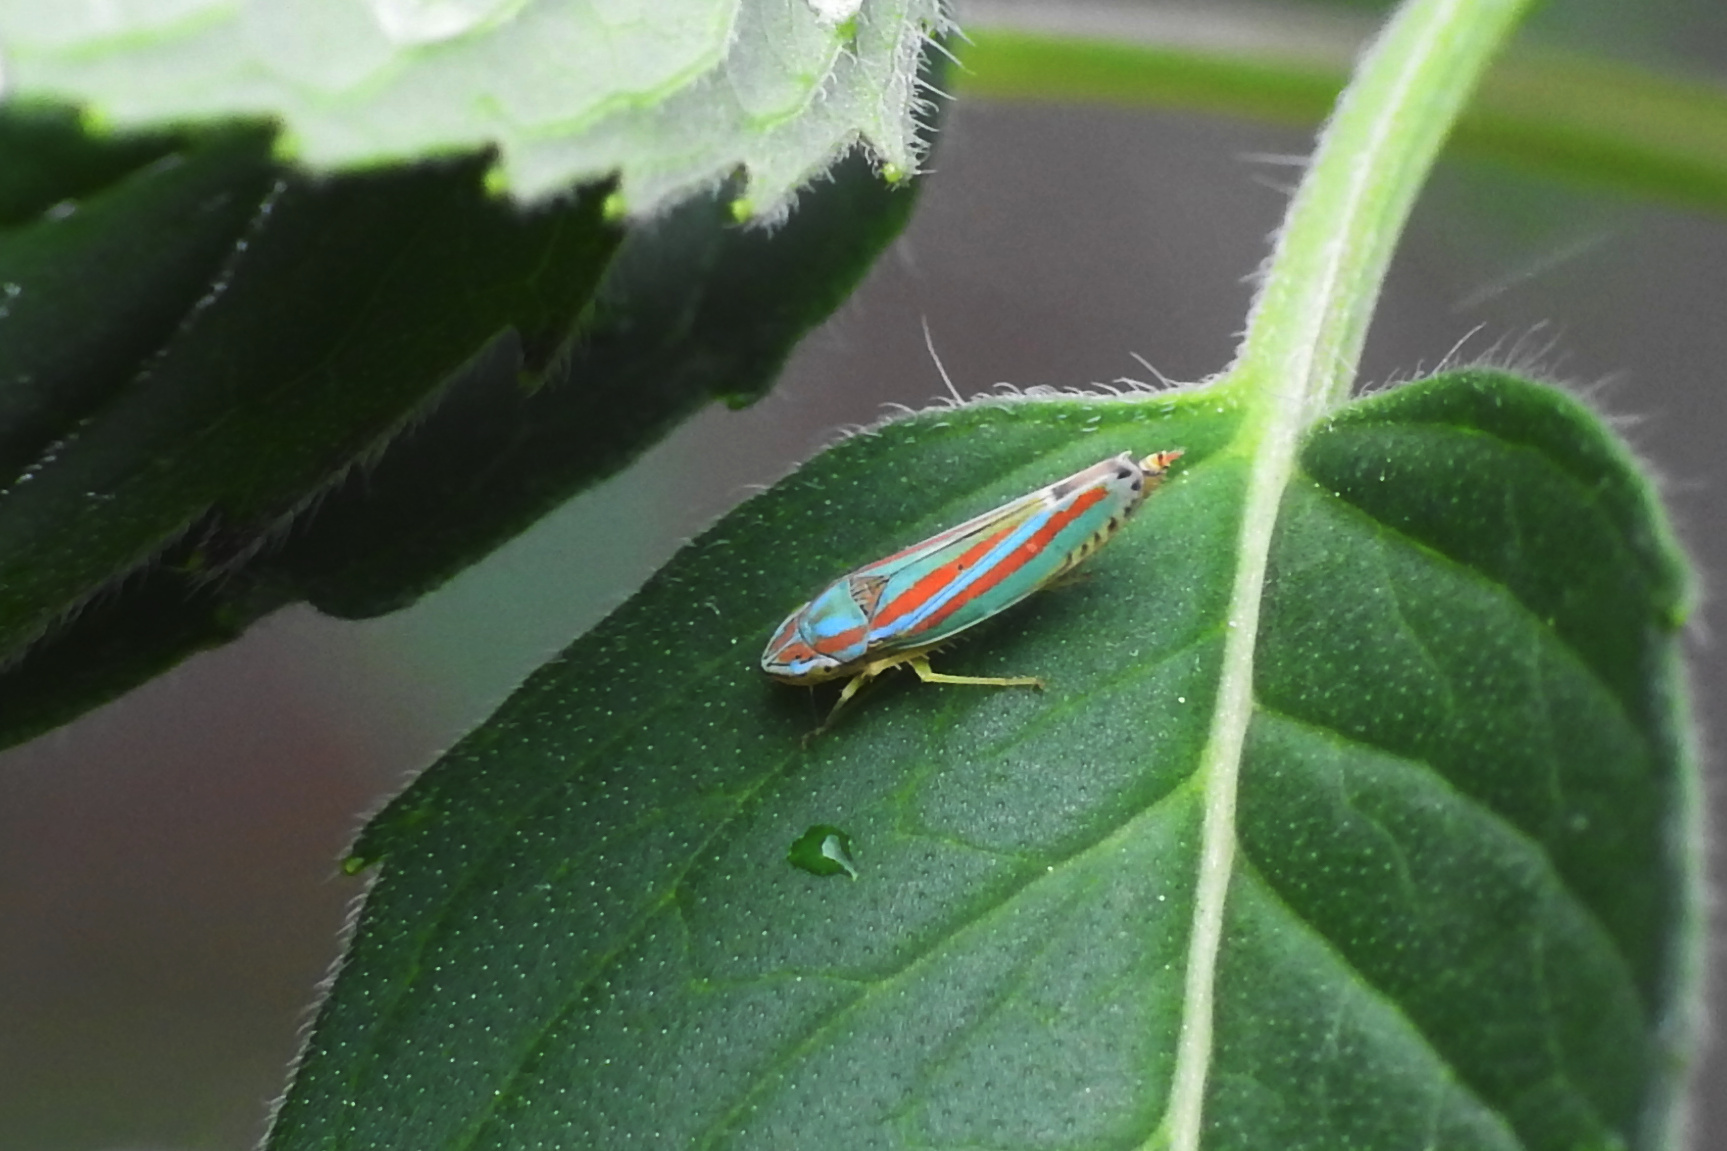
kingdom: Animalia
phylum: Arthropoda
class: Insecta
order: Hemiptera
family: Cicadellidae
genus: Graphocephala
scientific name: Graphocephala versuta
